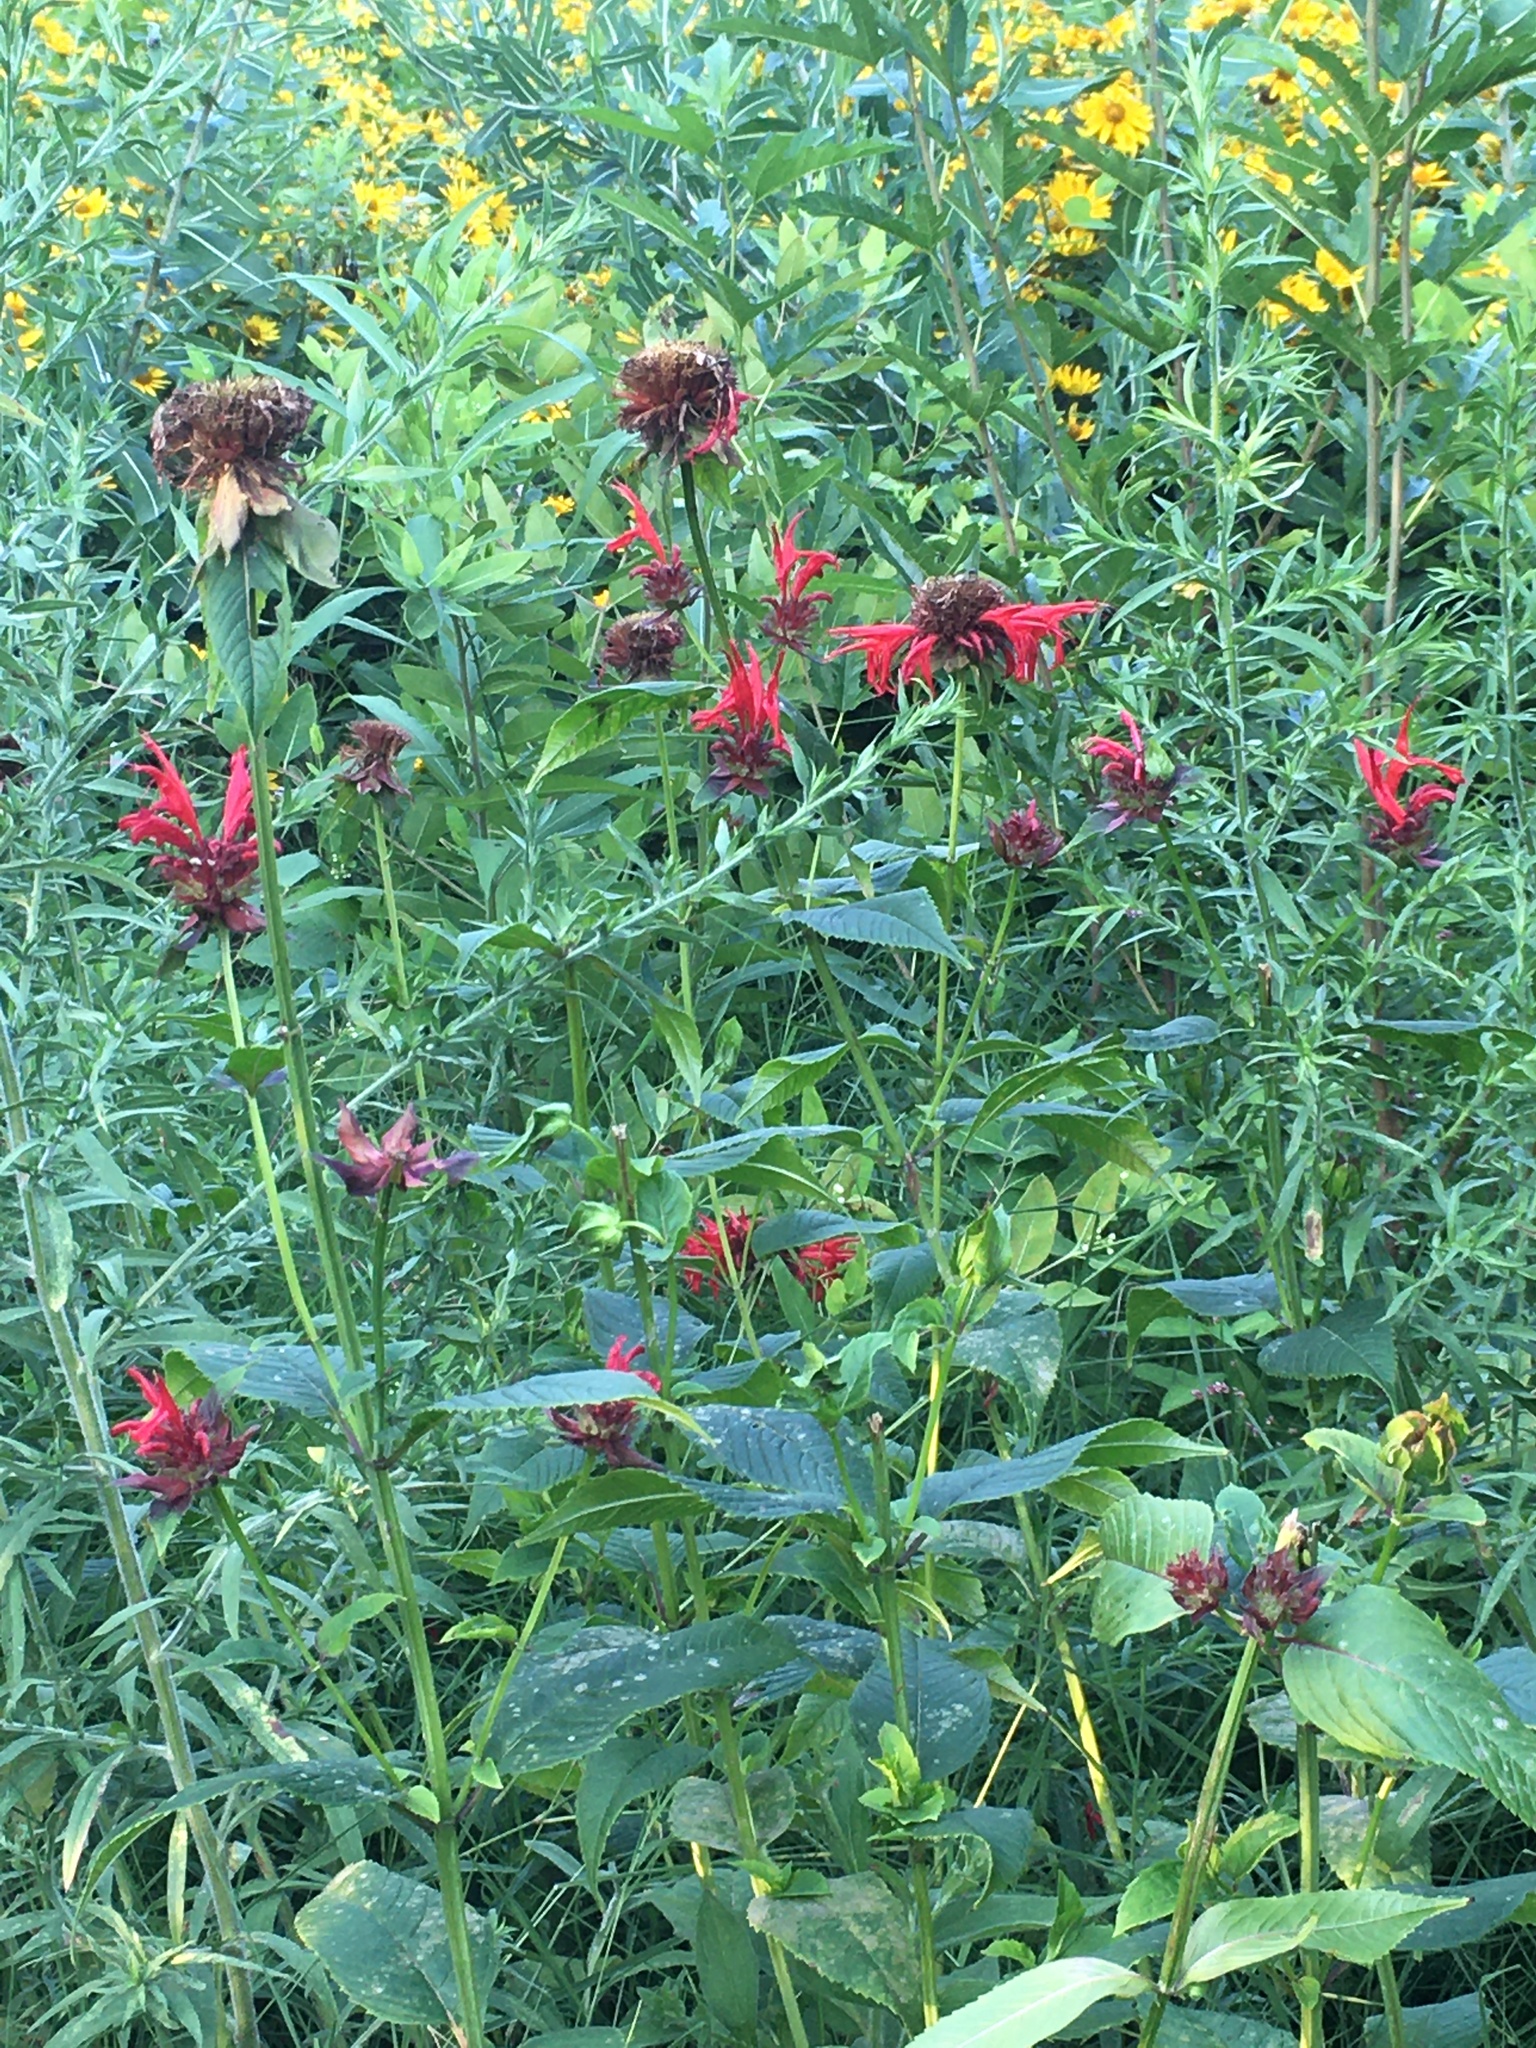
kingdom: Plantae
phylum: Tracheophyta
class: Magnoliopsida
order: Lamiales
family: Lamiaceae
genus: Monarda
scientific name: Monarda didyma
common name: Beebalm
